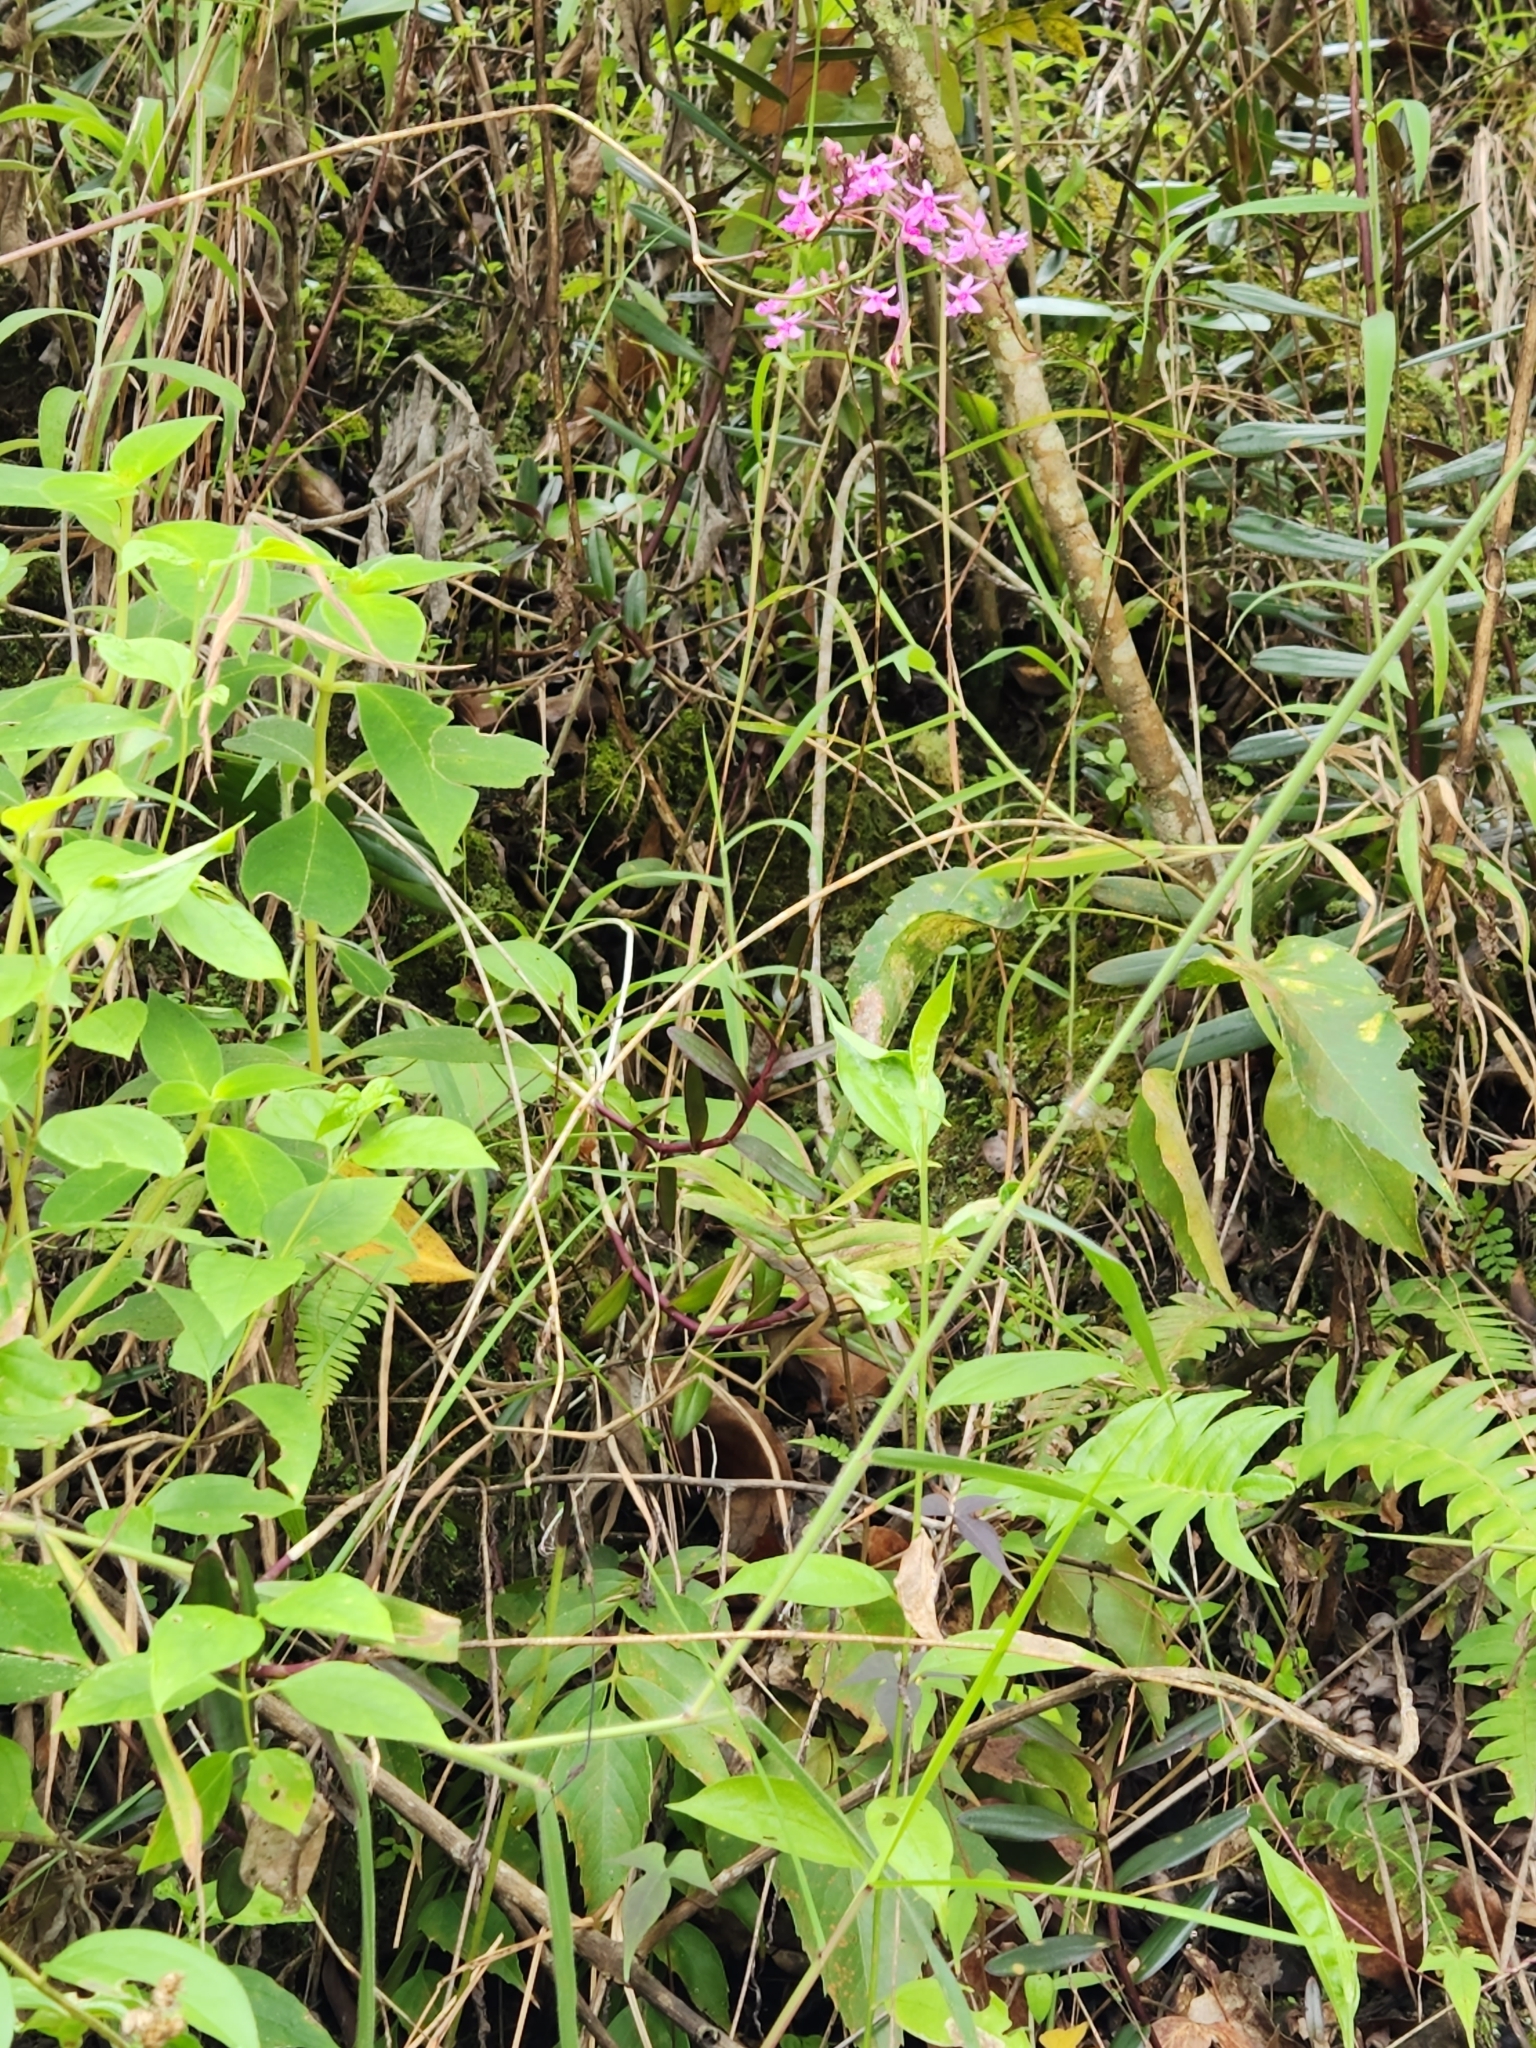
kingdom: Plantae
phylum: Tracheophyta
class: Liliopsida
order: Asparagales
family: Orchidaceae
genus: Epidendrum
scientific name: Epidendrum calanthum
